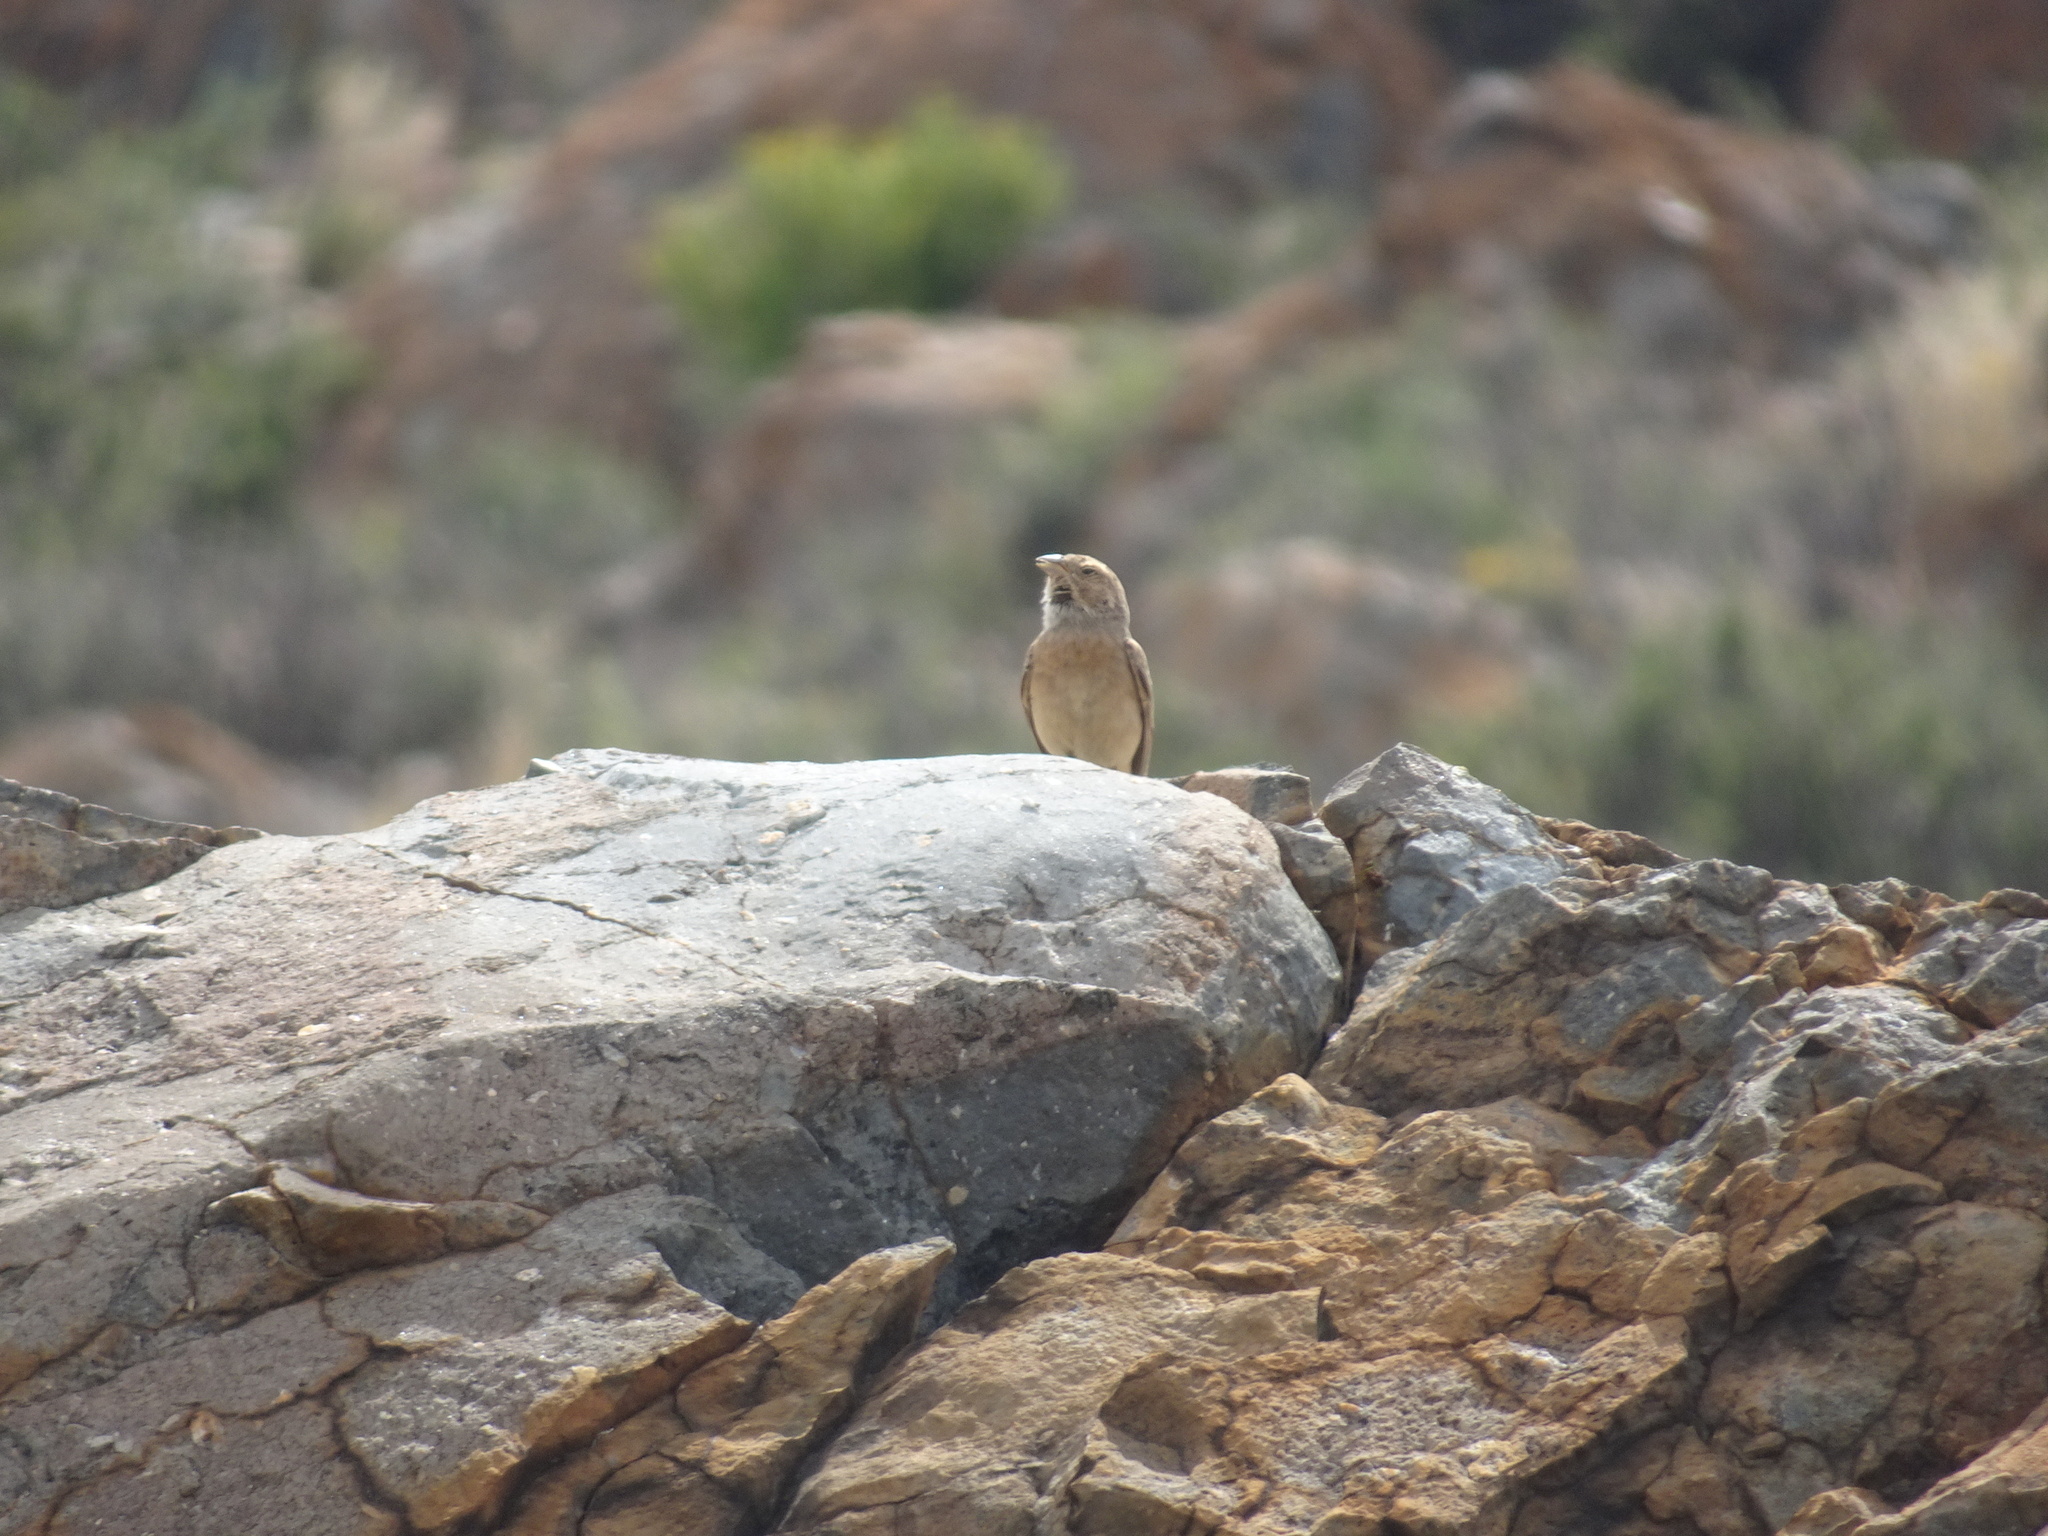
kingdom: Animalia
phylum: Chordata
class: Aves
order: Passeriformes
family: Emberizidae
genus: Emberiza
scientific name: Emberiza impetuani
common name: Lark-like bunting
